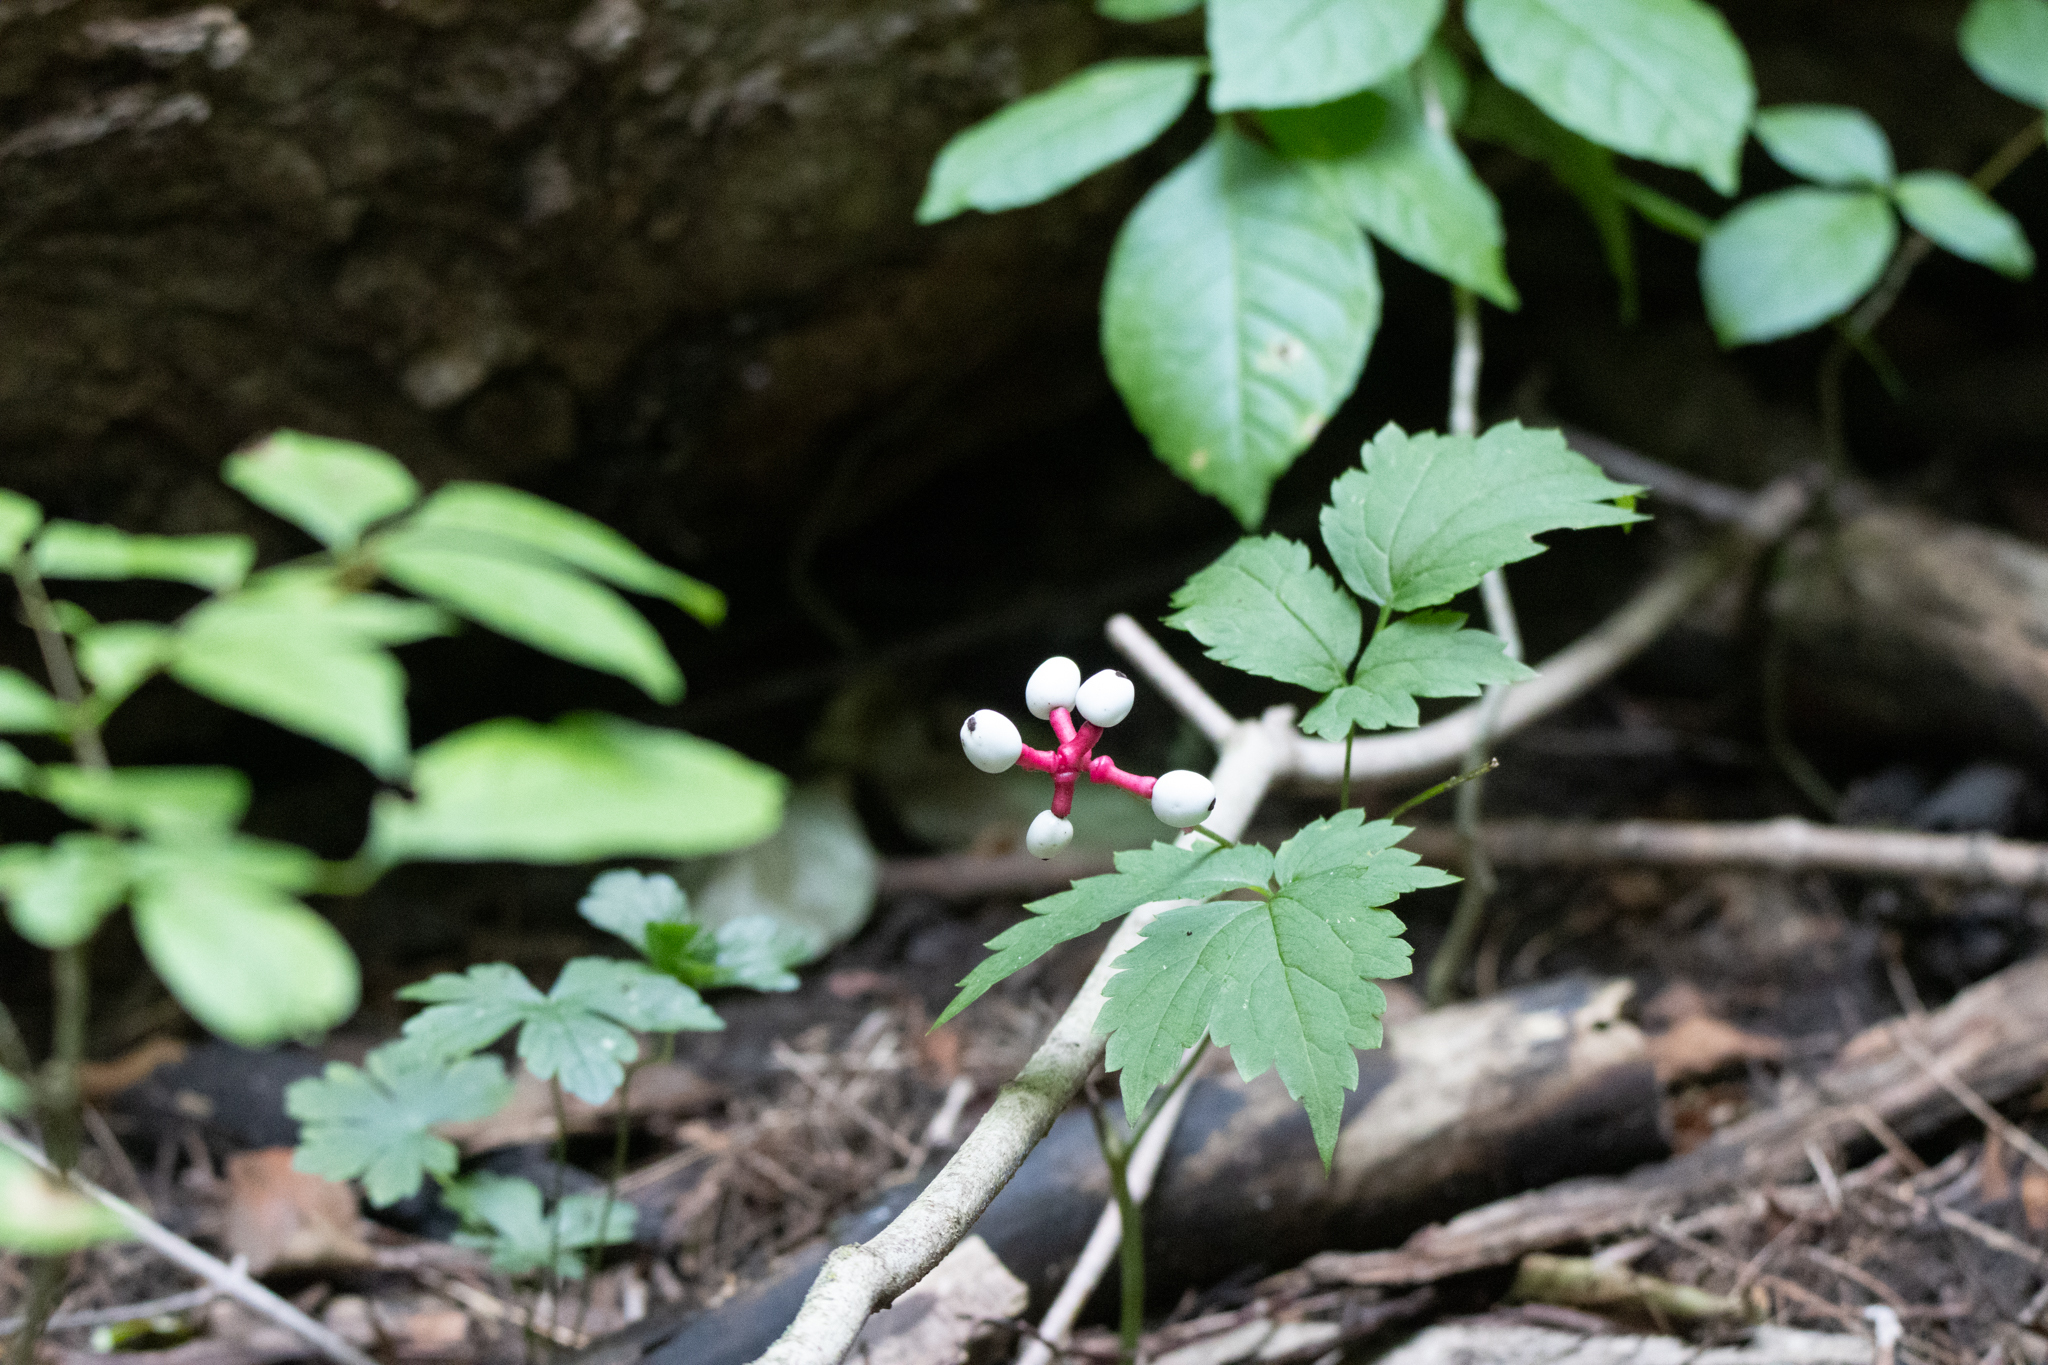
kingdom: Plantae
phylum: Tracheophyta
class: Magnoliopsida
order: Ranunculales
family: Ranunculaceae
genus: Actaea
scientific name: Actaea pachypoda
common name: Doll's-eyes
